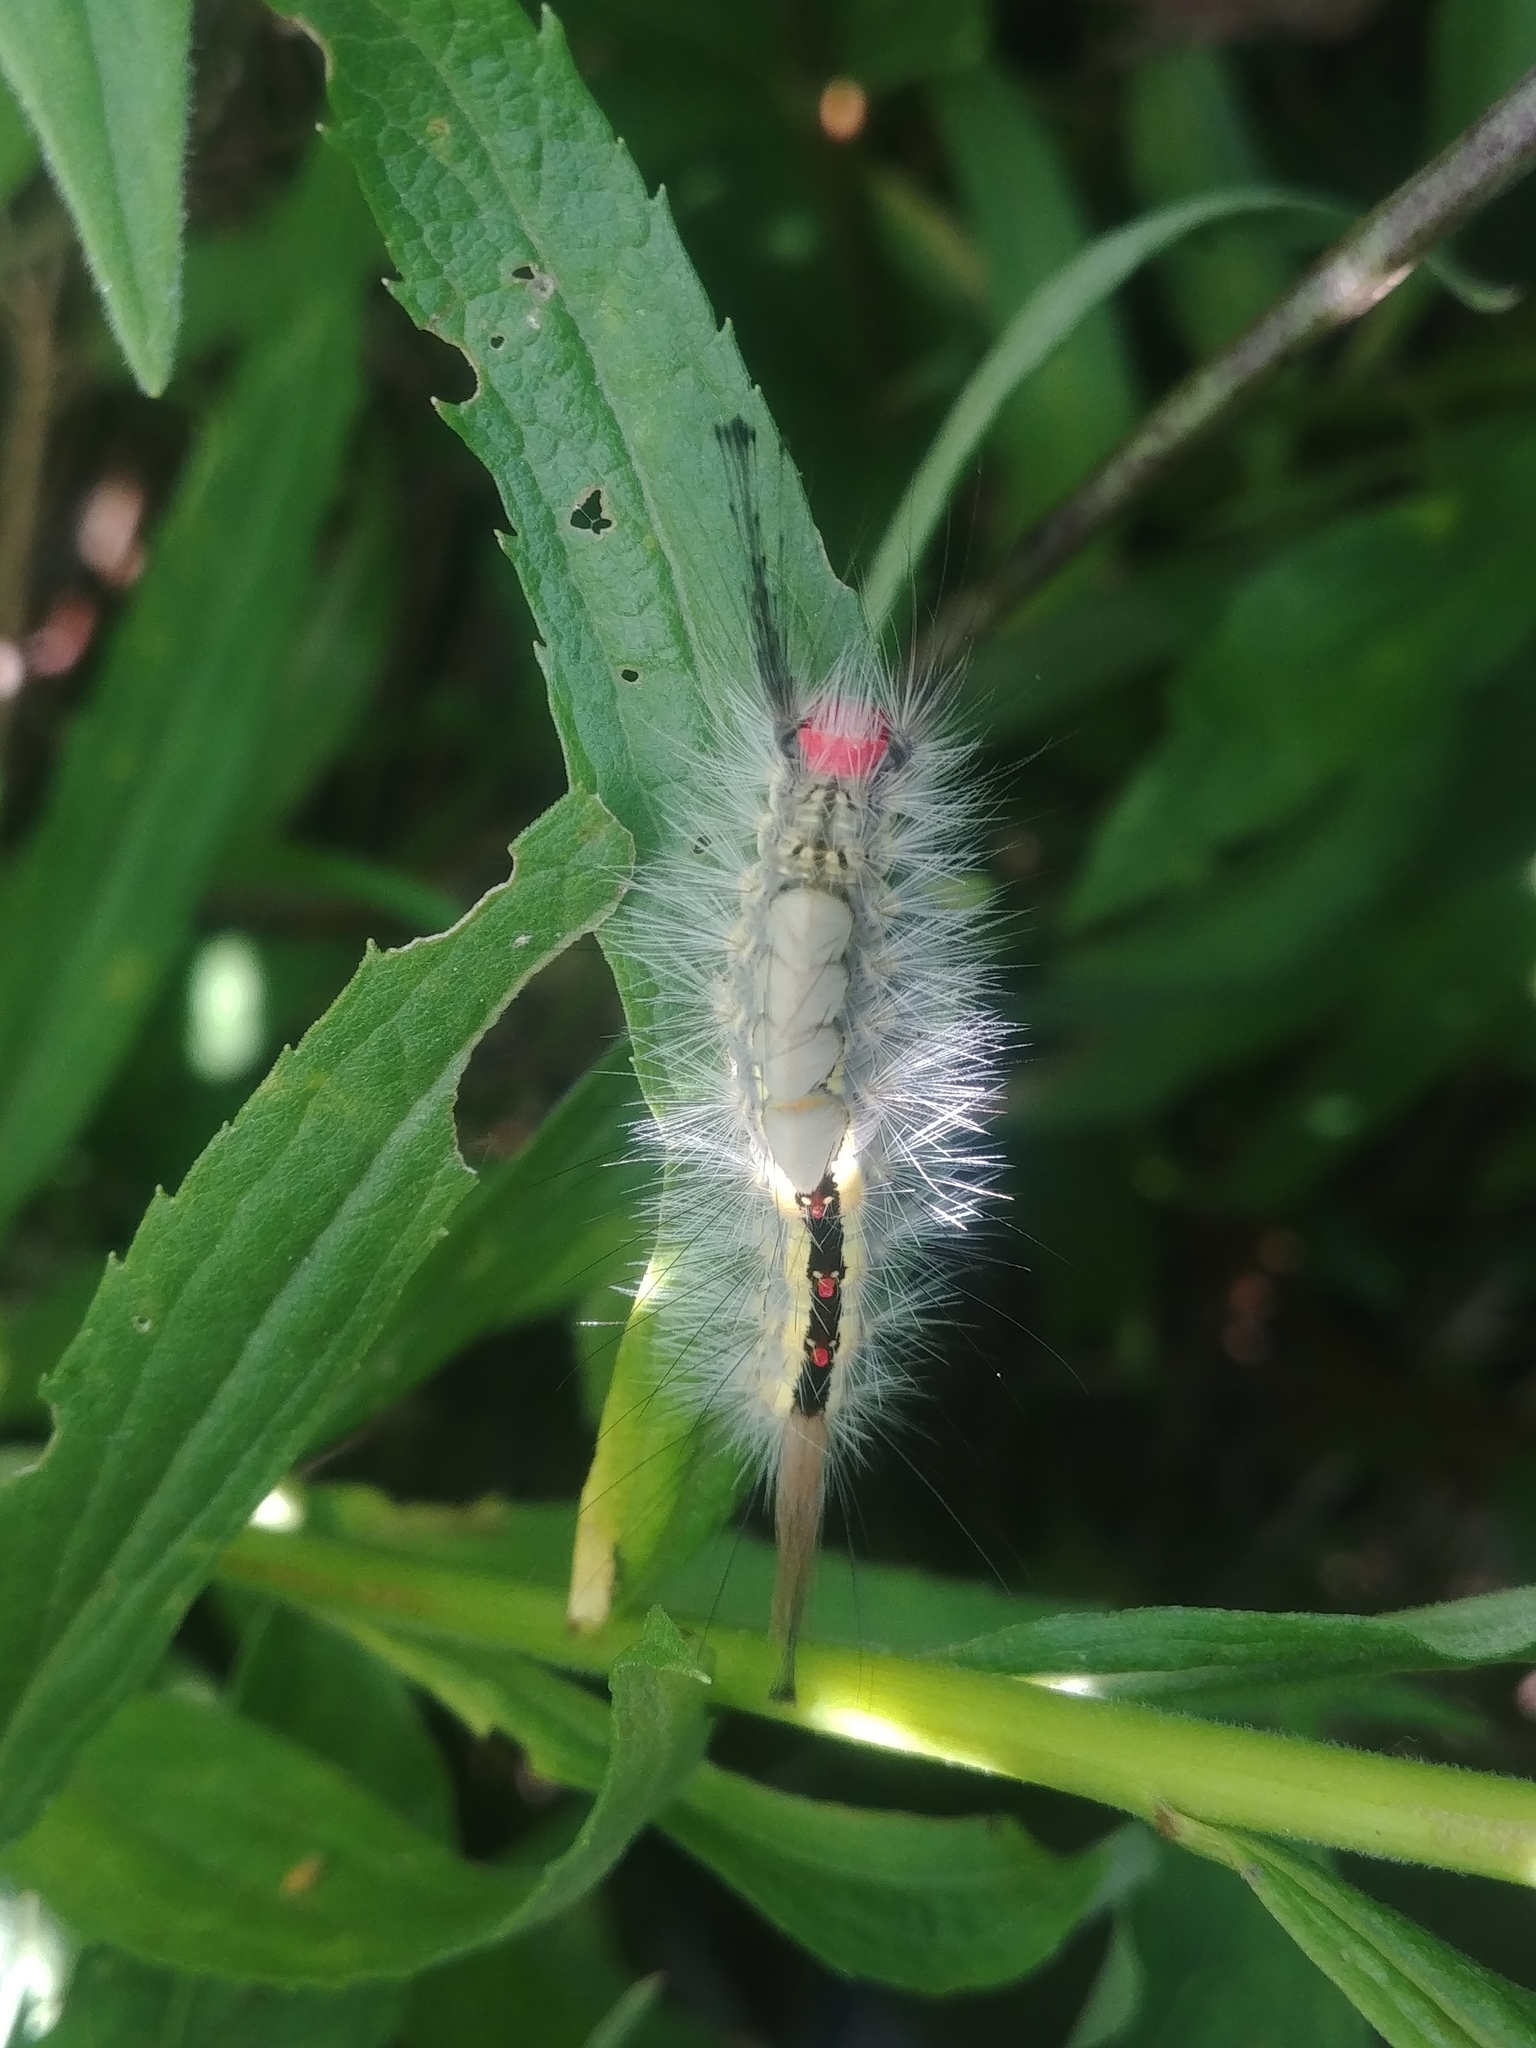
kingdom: Animalia
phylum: Arthropoda
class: Insecta
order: Lepidoptera
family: Erebidae
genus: Orgyia
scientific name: Orgyia leucostigma
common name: White-marked tussock moth
